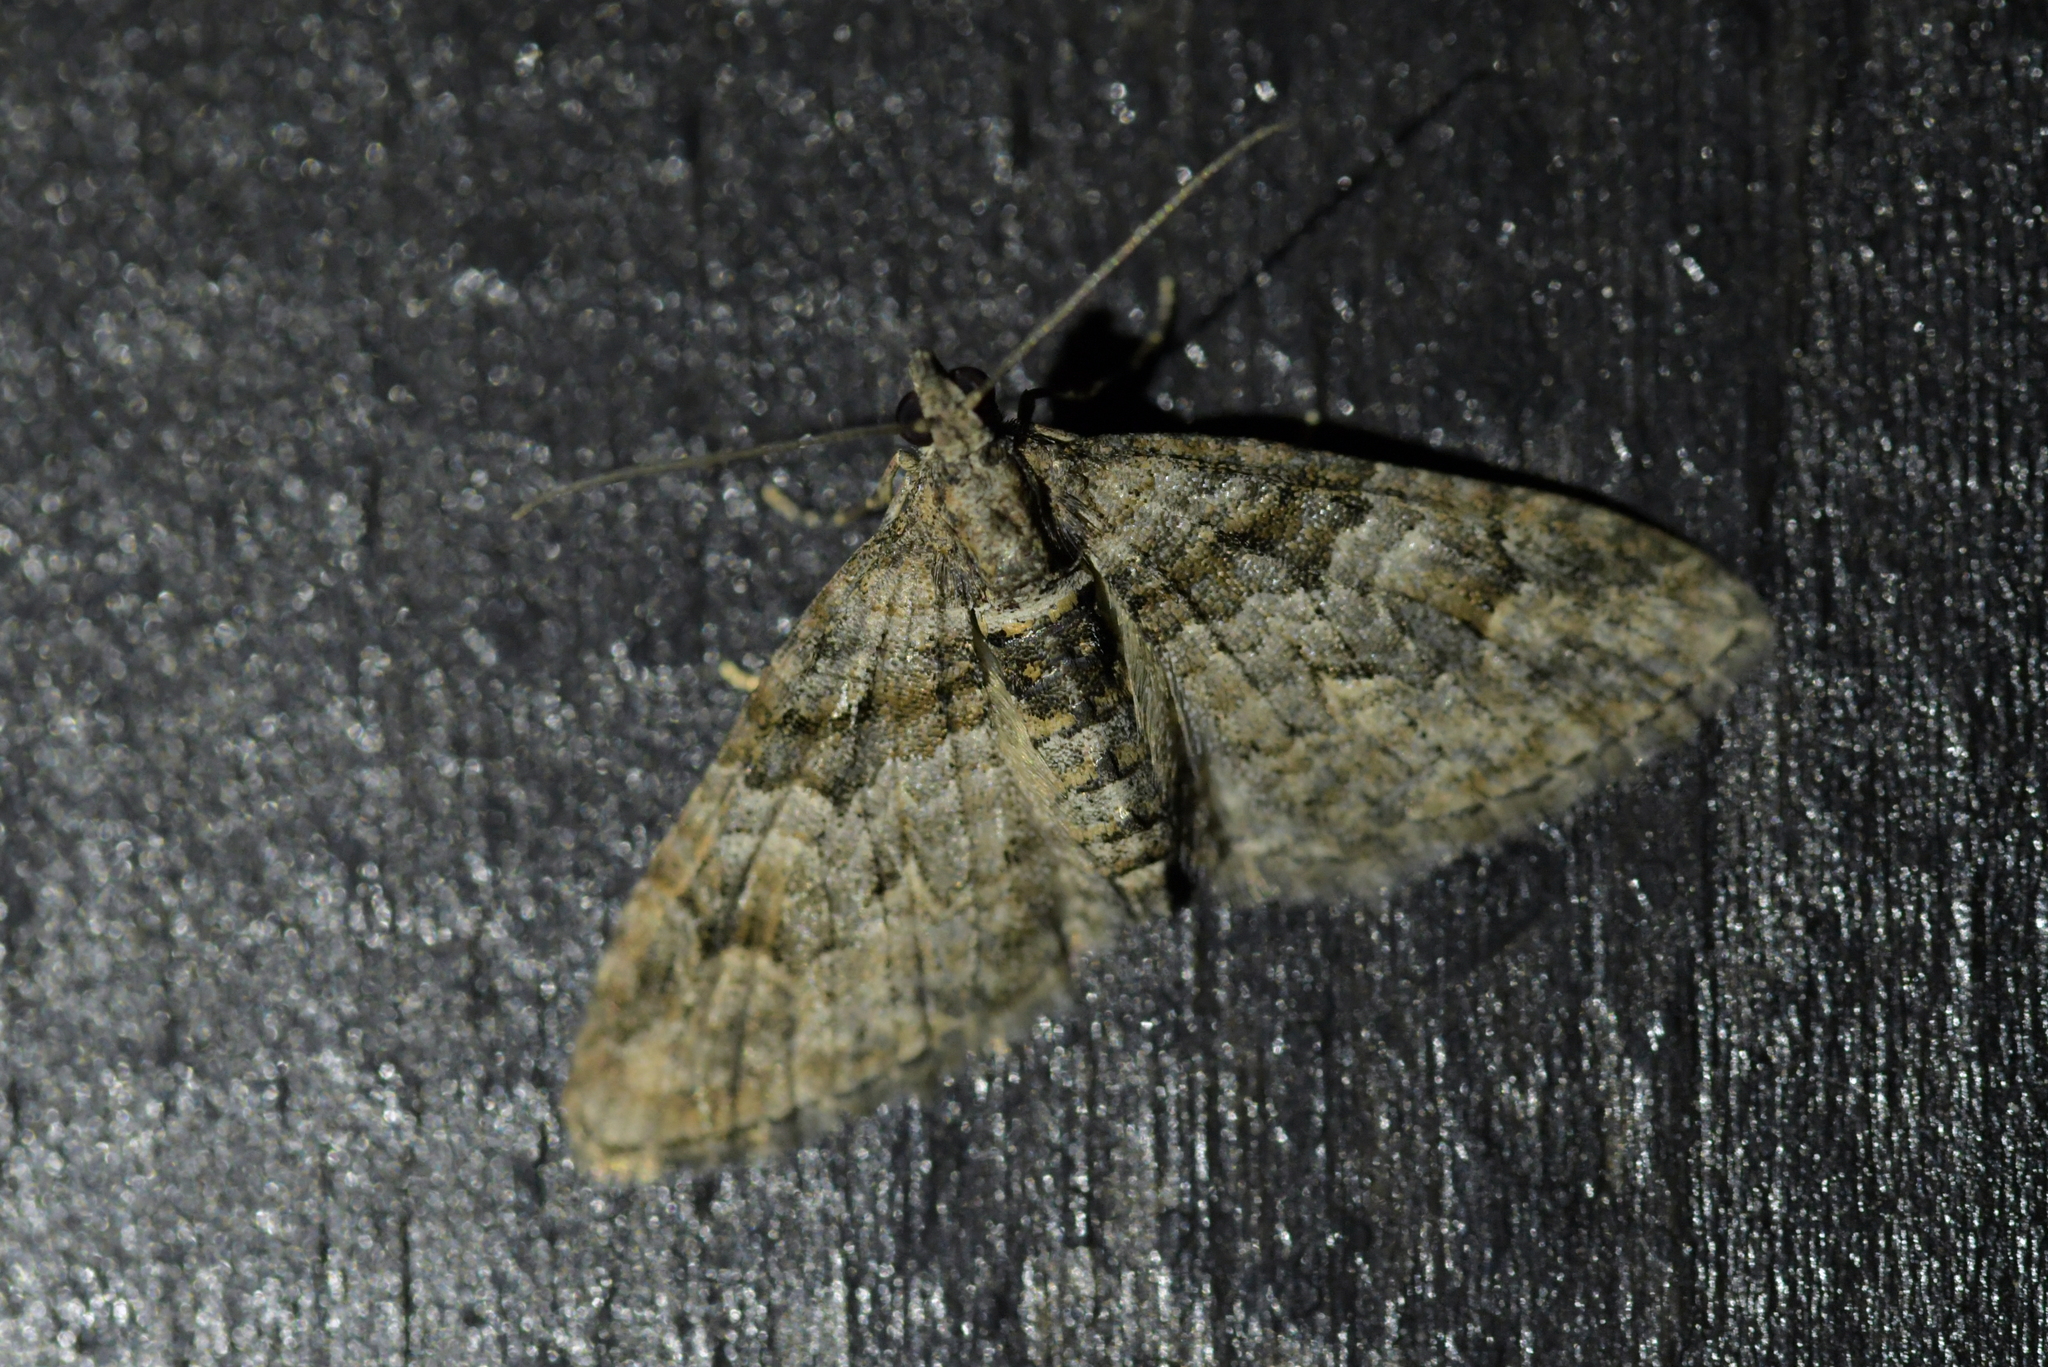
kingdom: Animalia
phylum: Arthropoda
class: Insecta
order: Lepidoptera
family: Geometridae
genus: Phrissogonus
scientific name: Phrissogonus laticostata
